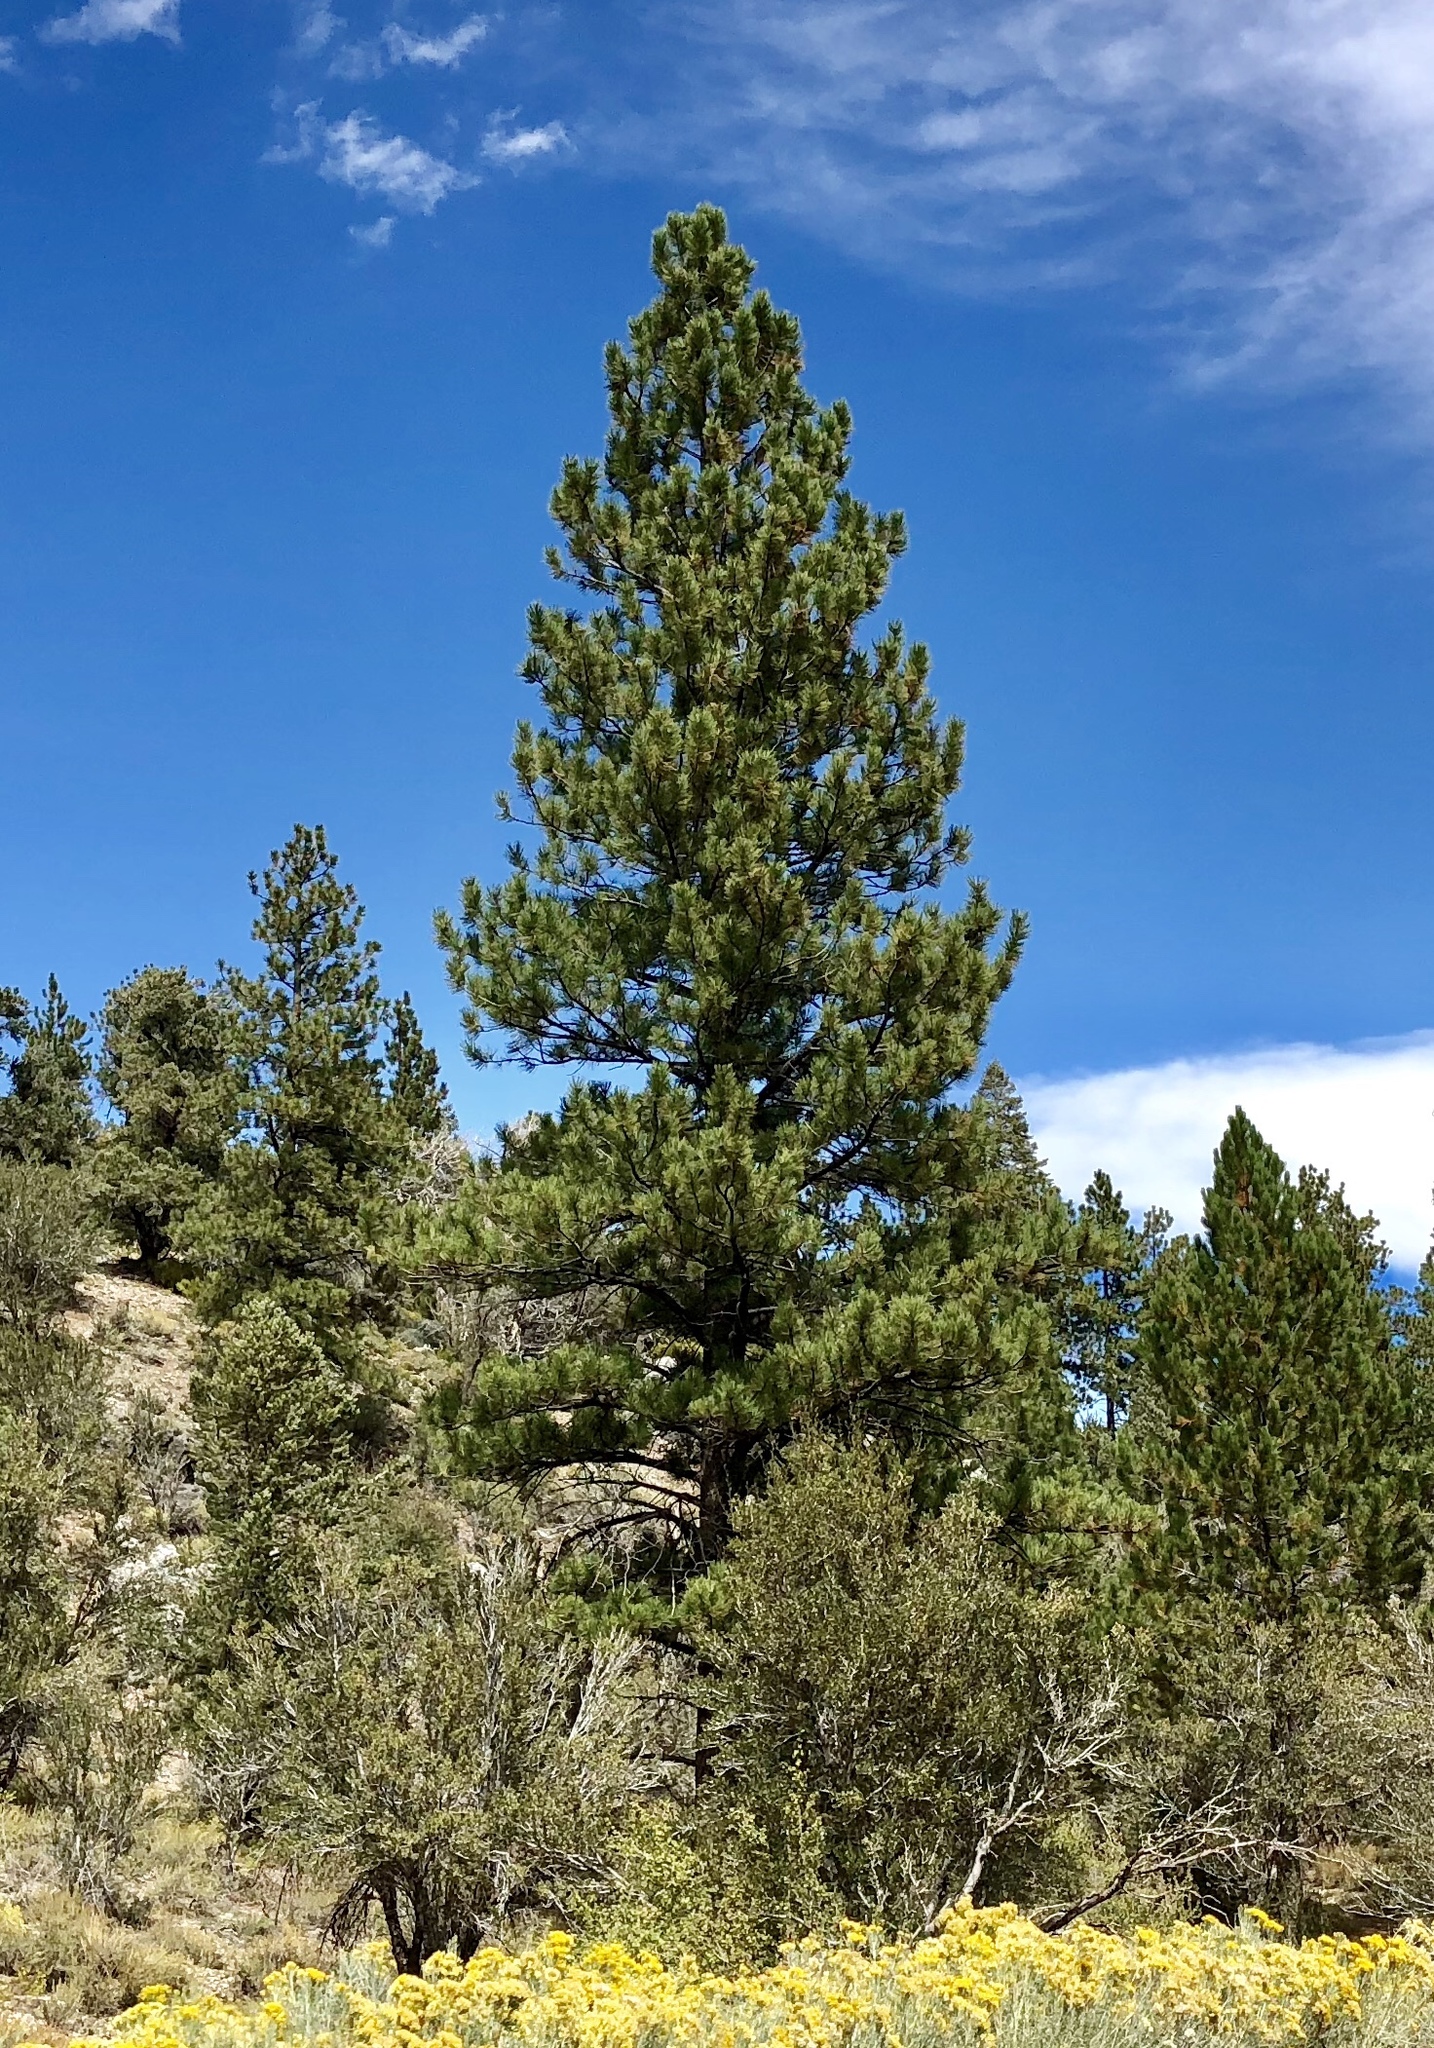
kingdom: Plantae
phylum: Tracheophyta
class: Pinopsida
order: Pinales
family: Pinaceae
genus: Pinus
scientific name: Pinus ponderosa
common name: Western yellow-pine
